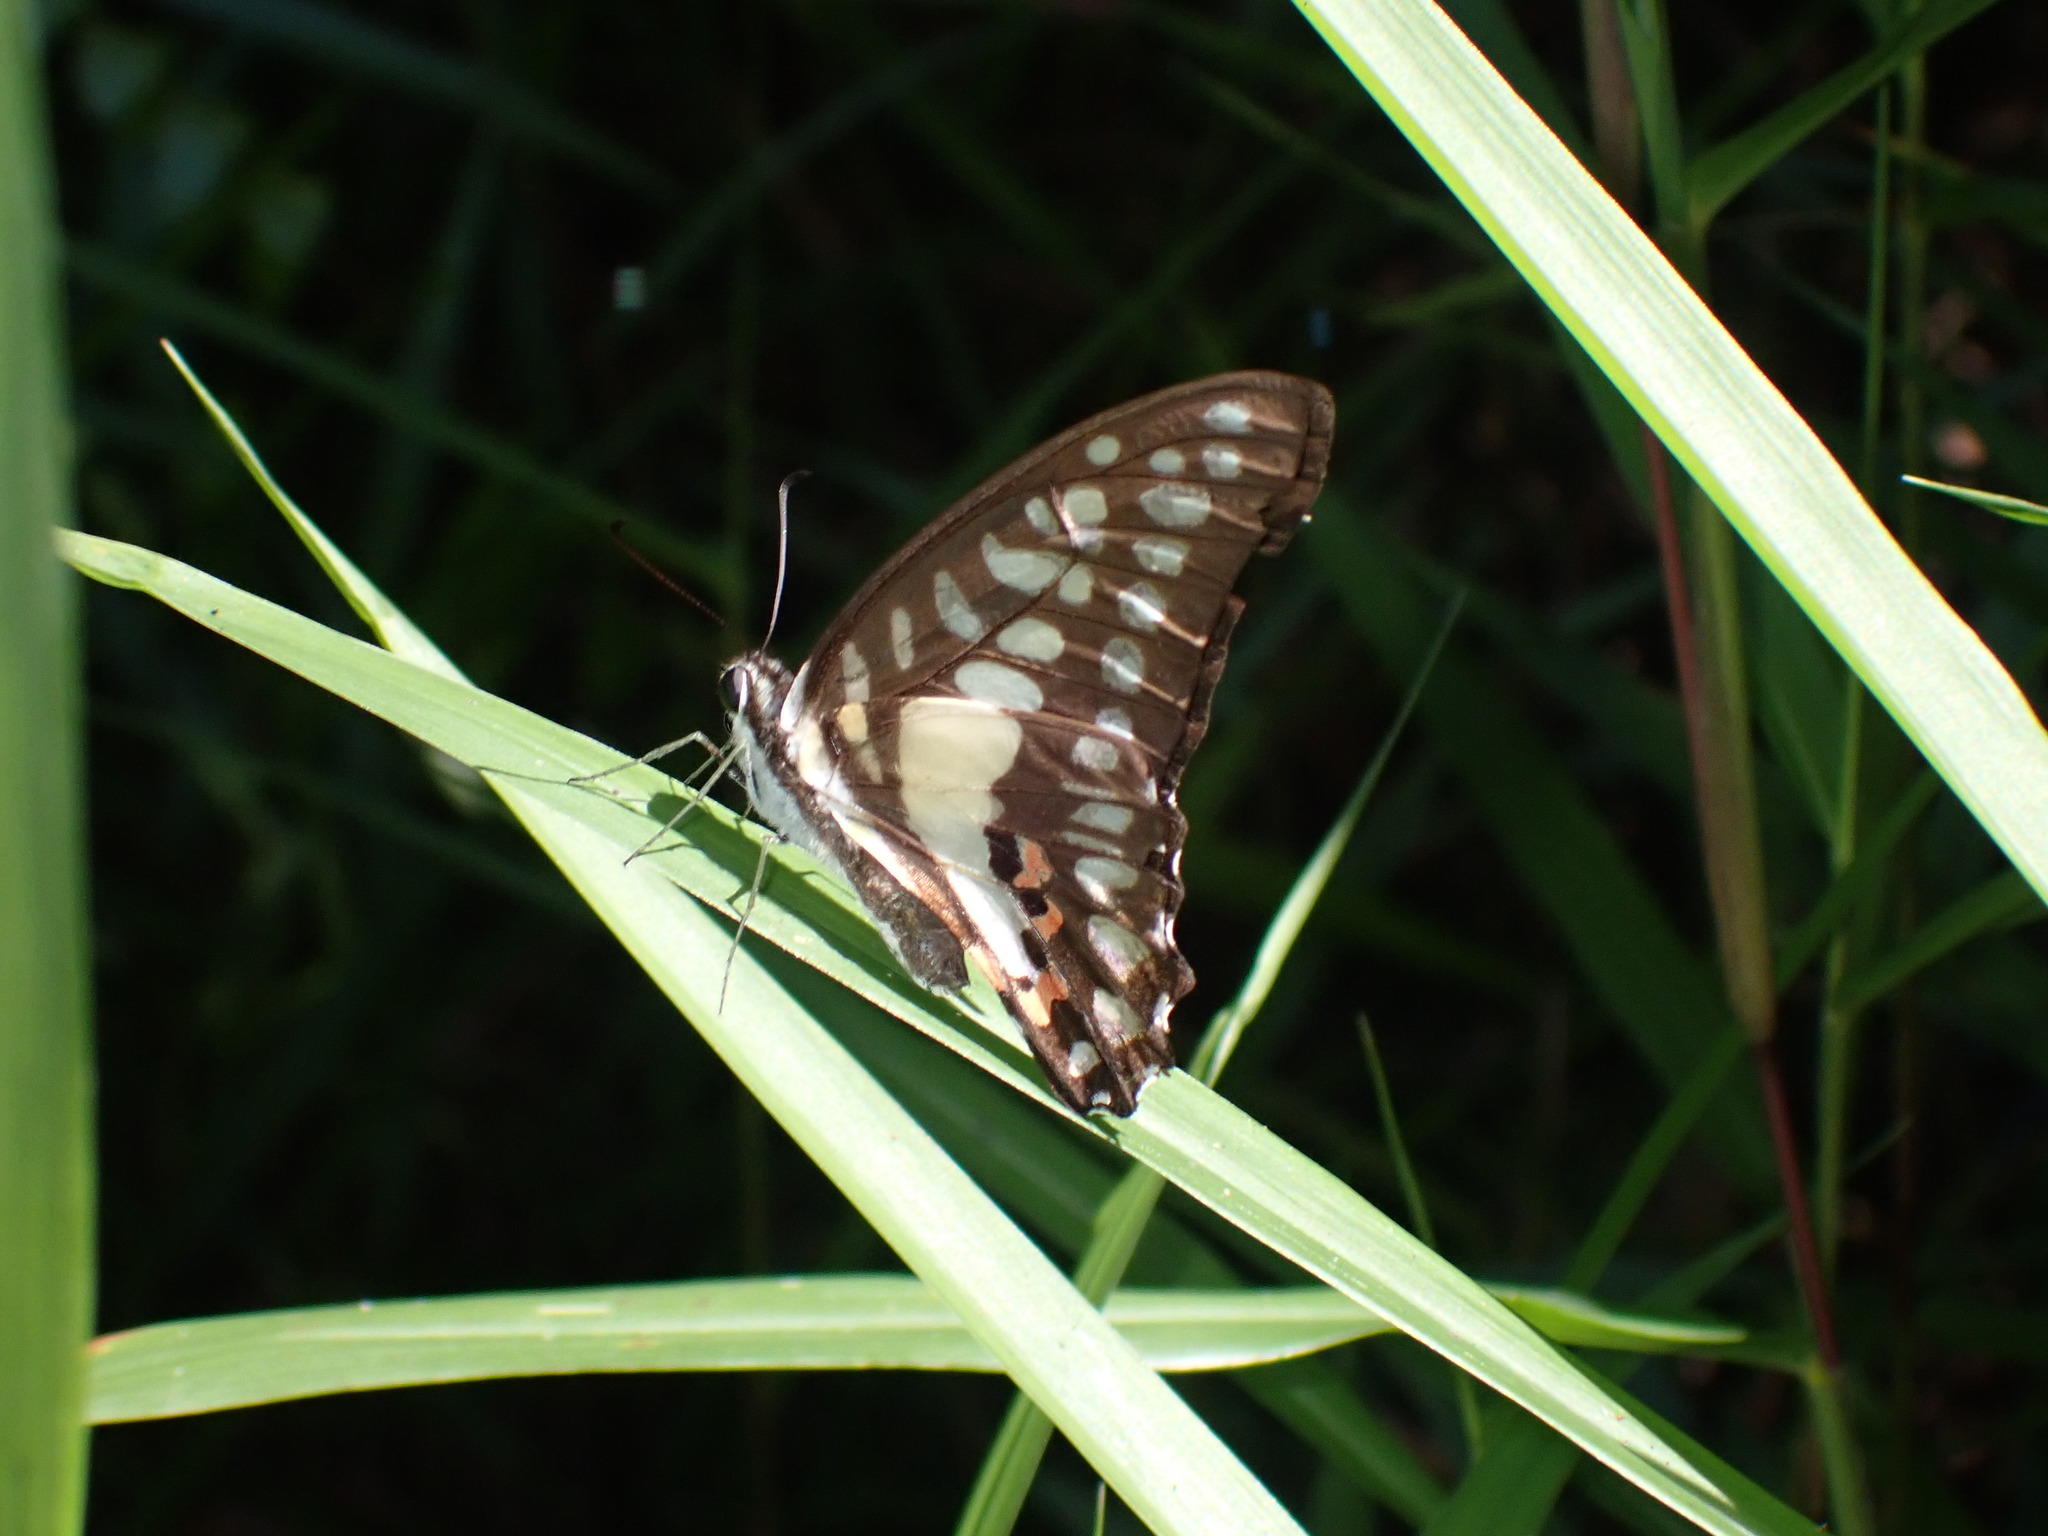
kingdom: Animalia
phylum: Arthropoda
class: Insecta
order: Lepidoptera
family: Papilionidae
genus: Graphium
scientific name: Graphium evemon
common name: Lesser jay
